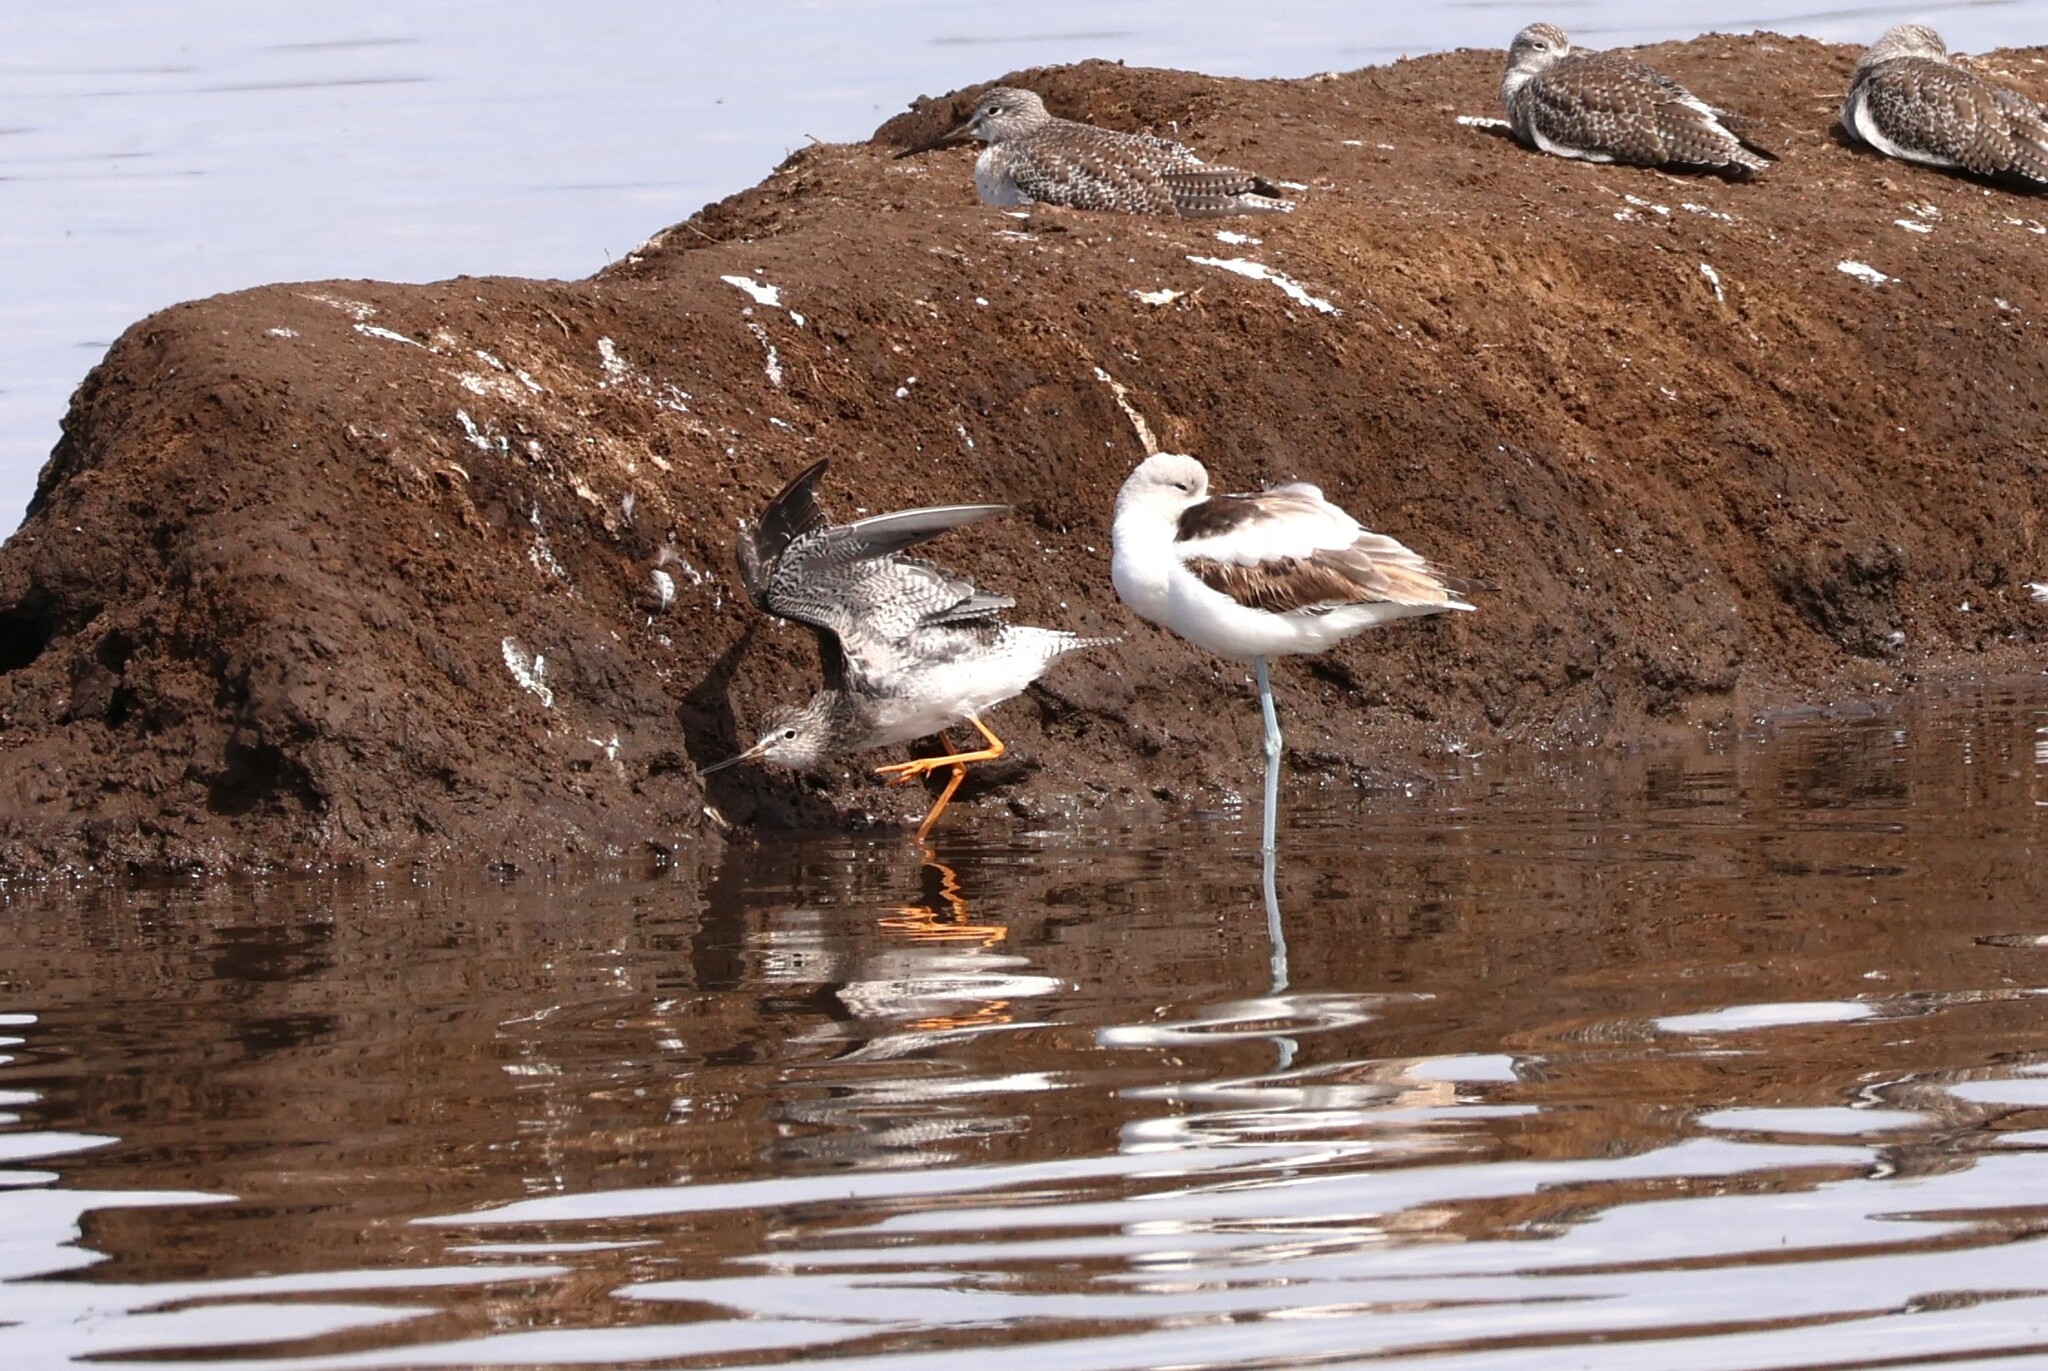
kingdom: Animalia
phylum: Chordata
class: Aves
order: Charadriiformes
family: Recurvirostridae
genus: Recurvirostra
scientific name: Recurvirostra americana
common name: American avocet
